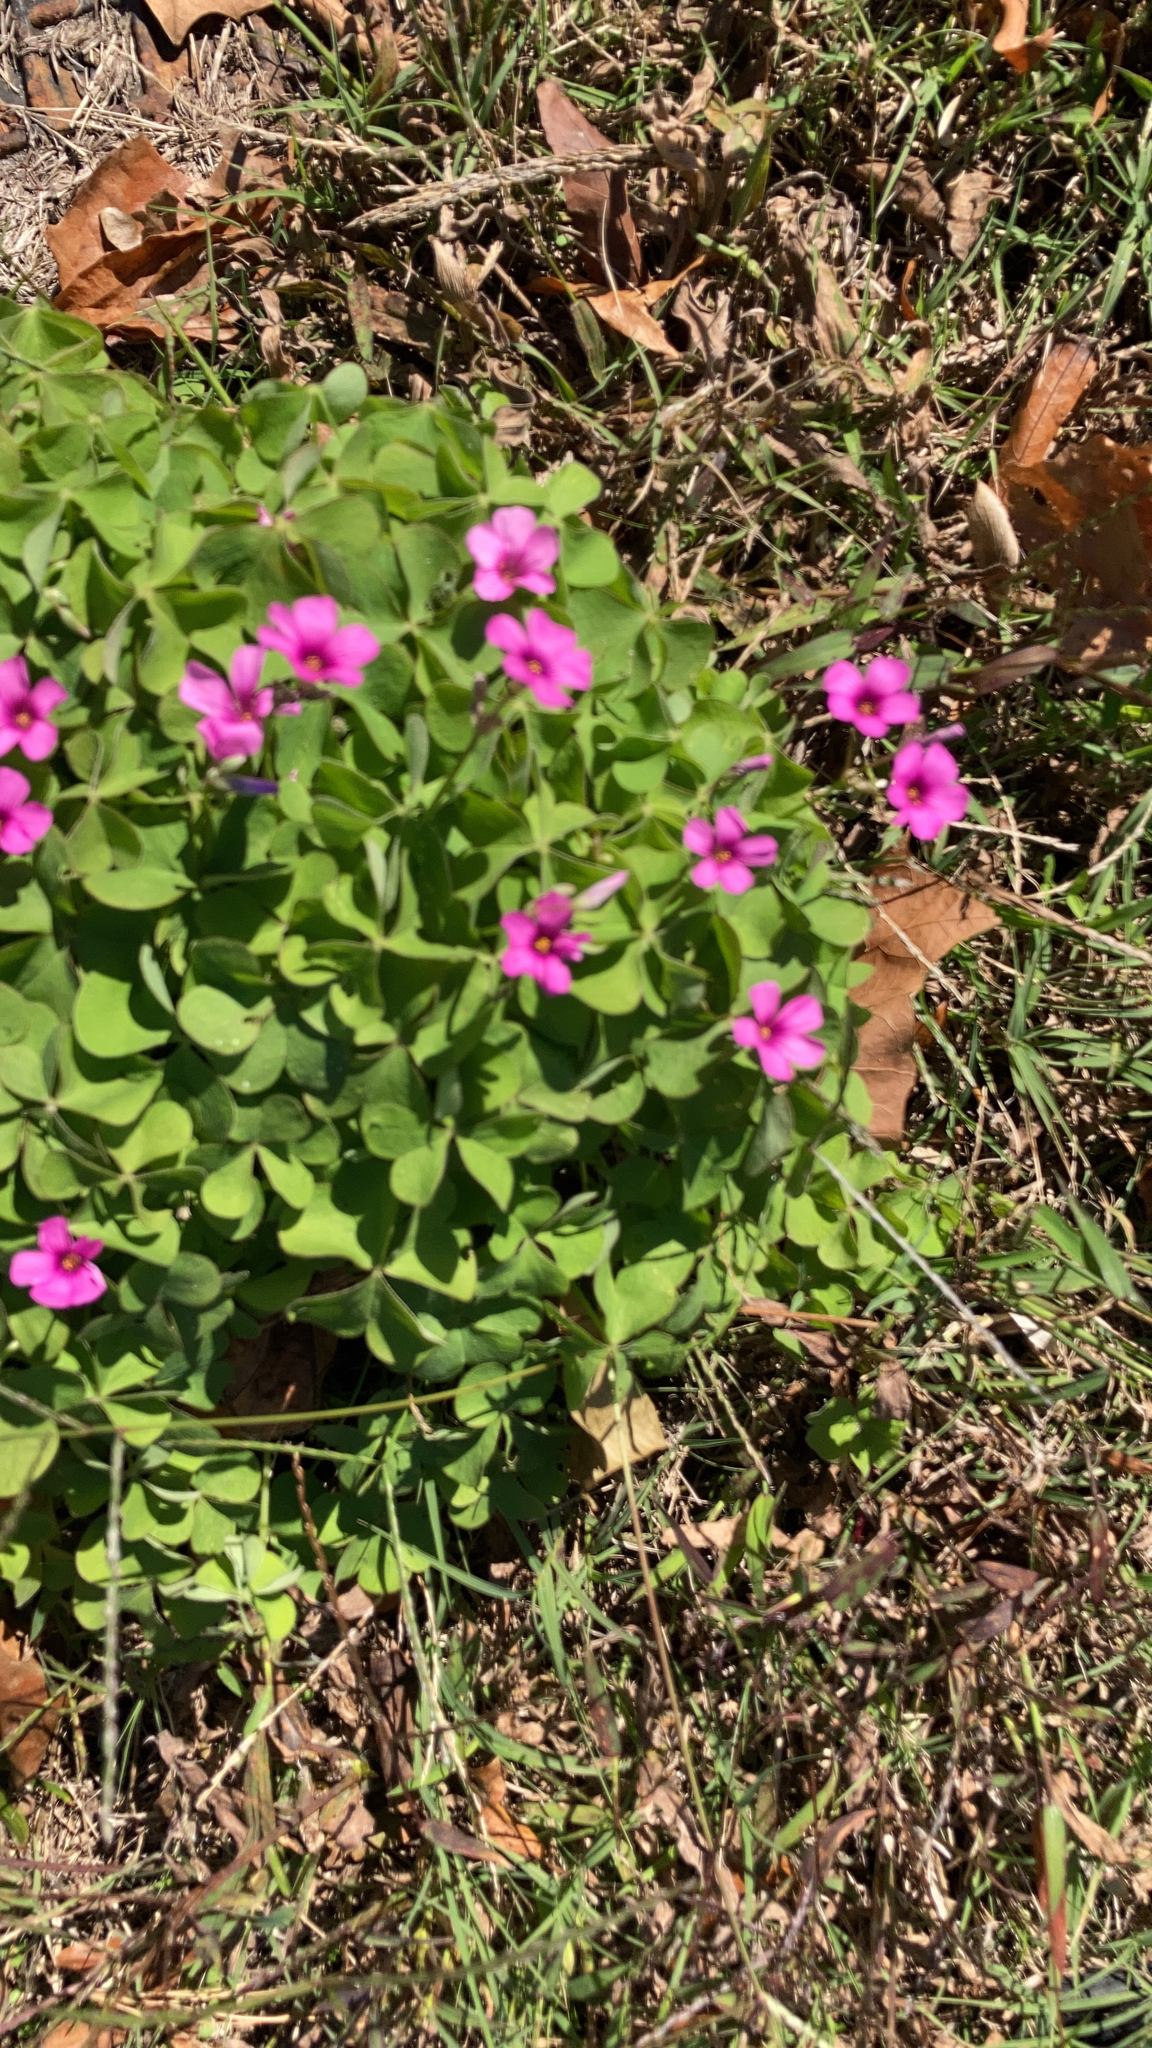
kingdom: Plantae
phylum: Tracheophyta
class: Magnoliopsida
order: Oxalidales
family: Oxalidaceae
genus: Oxalis
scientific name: Oxalis articulata
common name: Pink-sorrel
